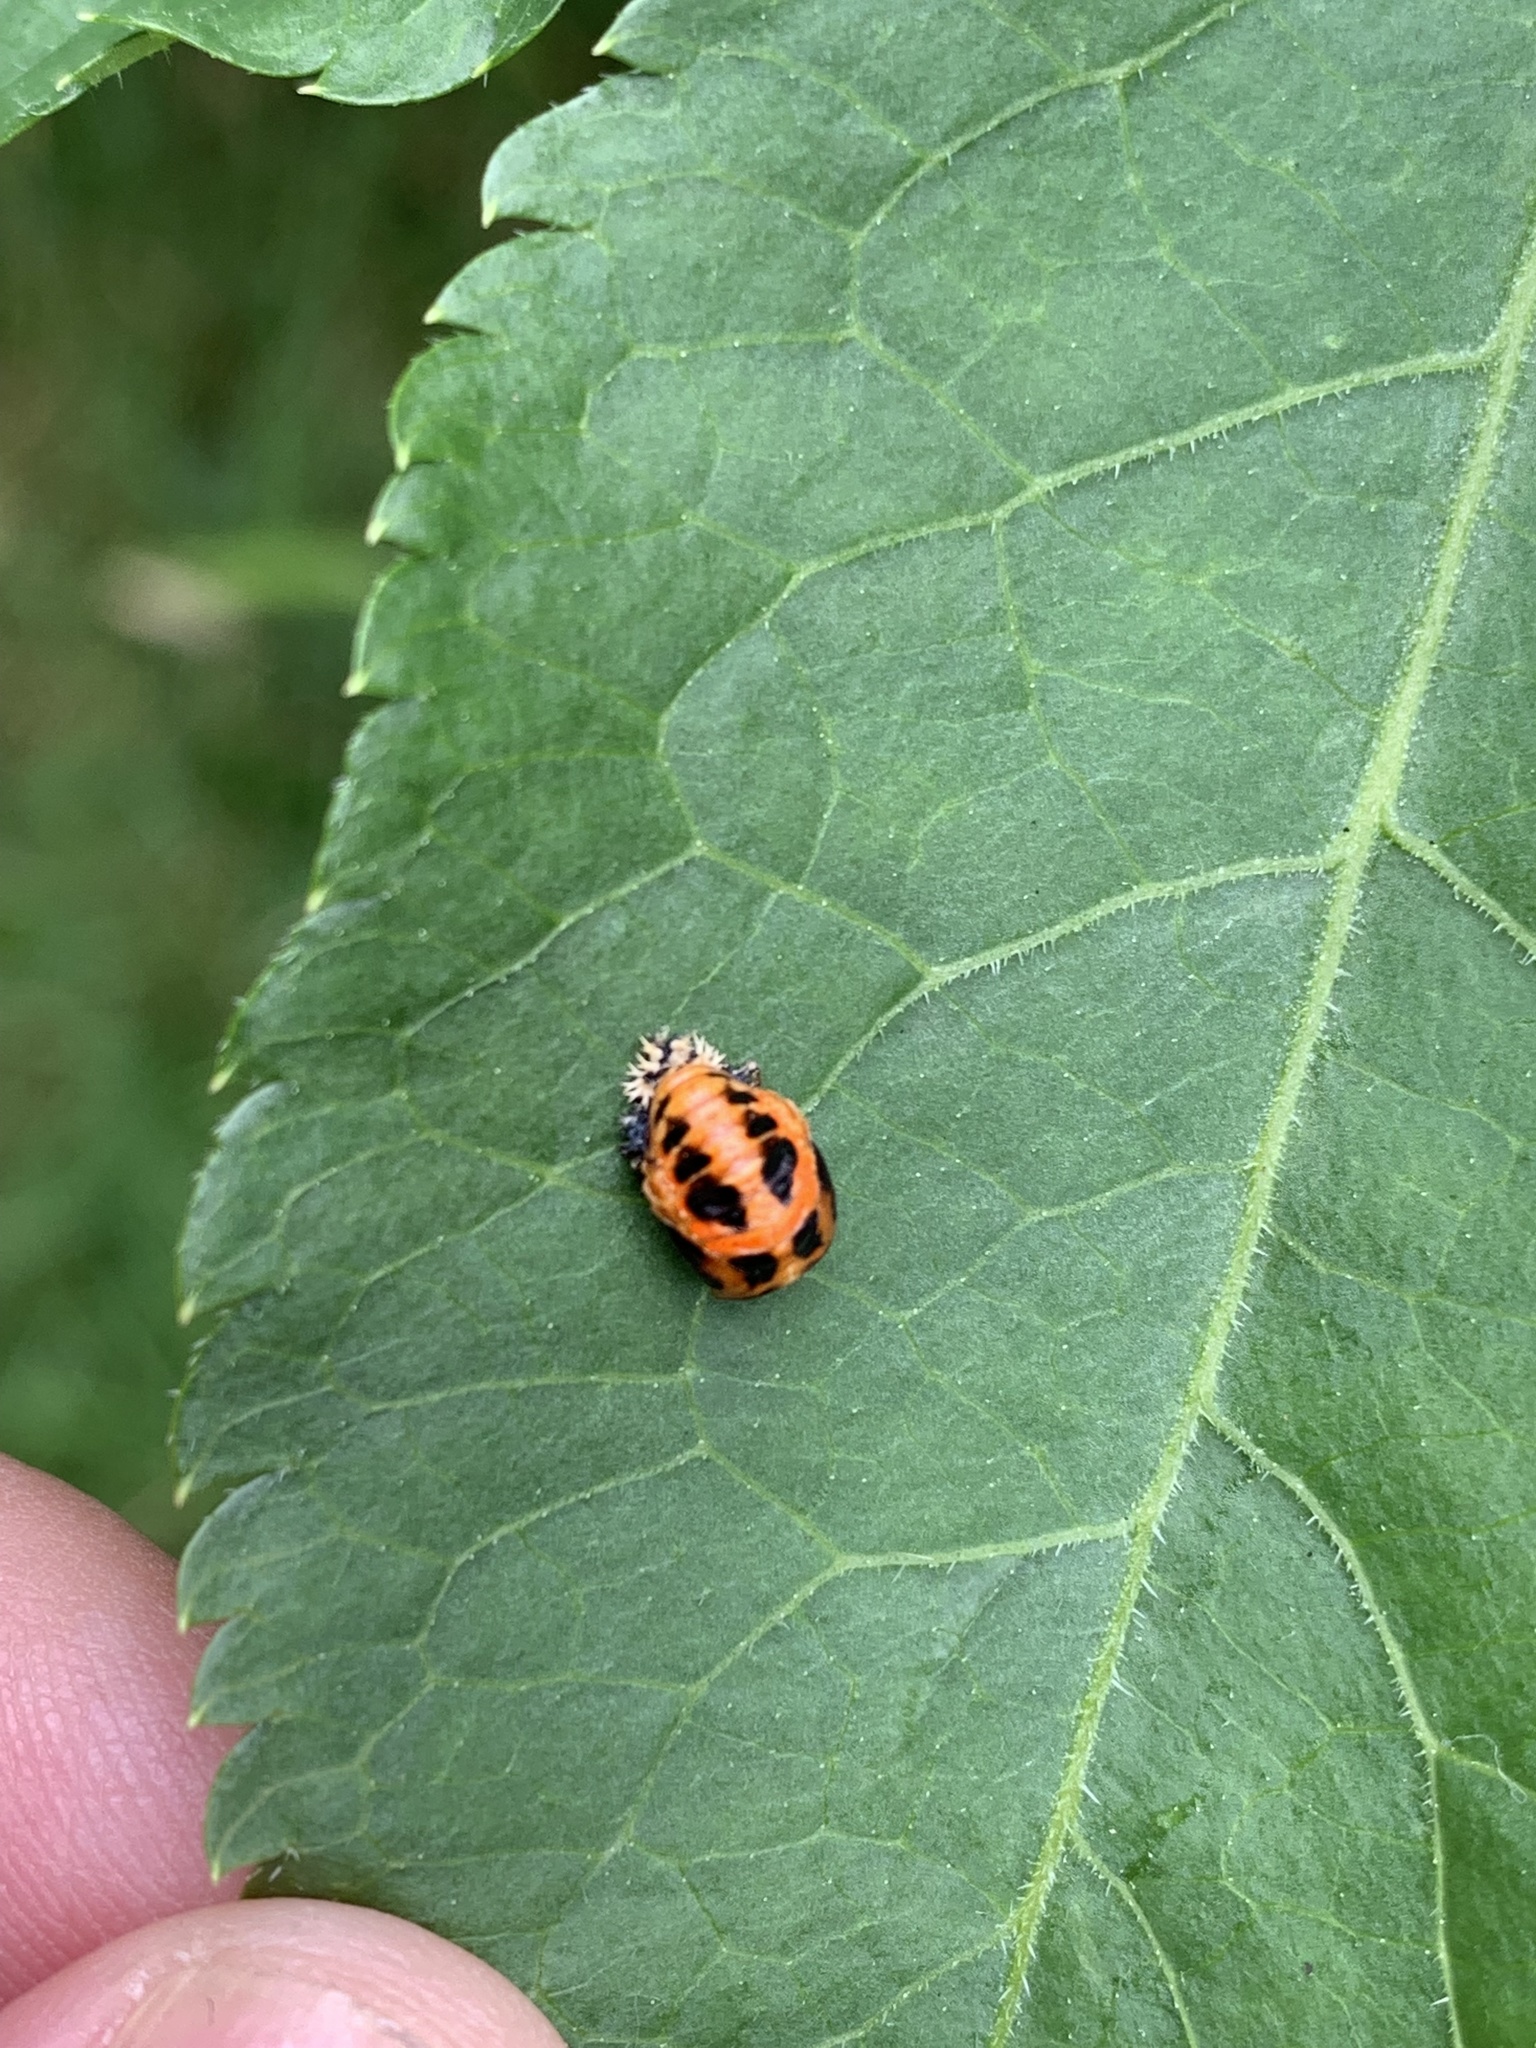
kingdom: Animalia
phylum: Arthropoda
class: Insecta
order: Coleoptera
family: Coccinellidae
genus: Harmonia
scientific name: Harmonia axyridis
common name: Harlequin ladybird
